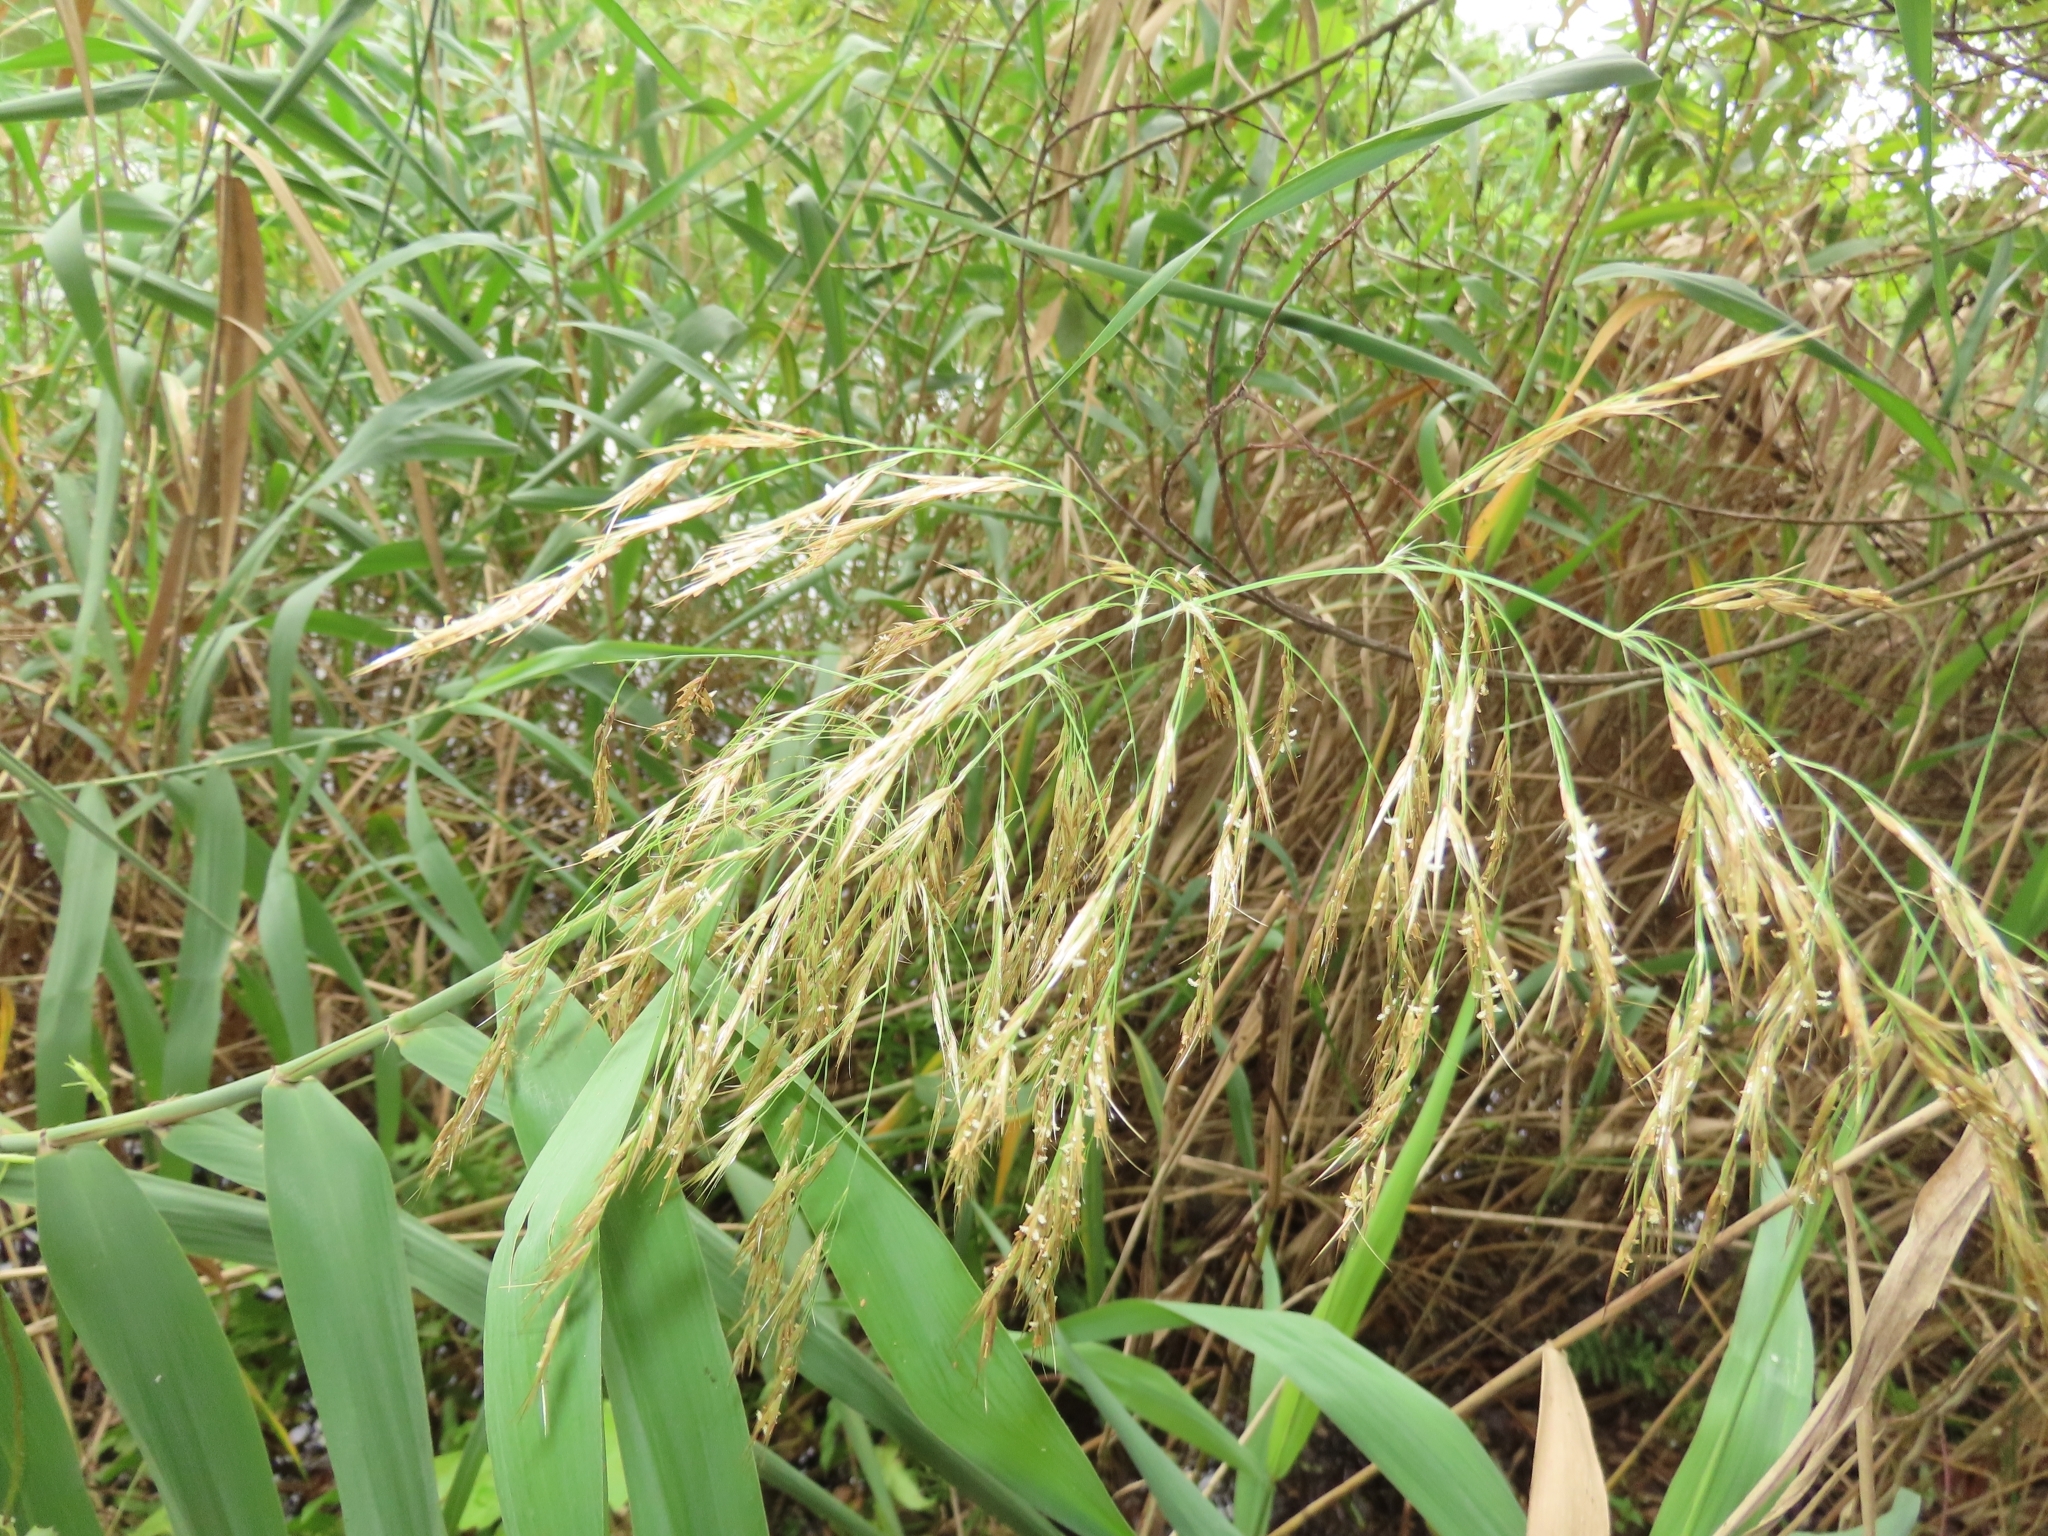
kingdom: Plantae
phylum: Tracheophyta
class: Liliopsida
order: Poales
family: Poaceae
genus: Phragmites
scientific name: Phragmites australis
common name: Common reed
